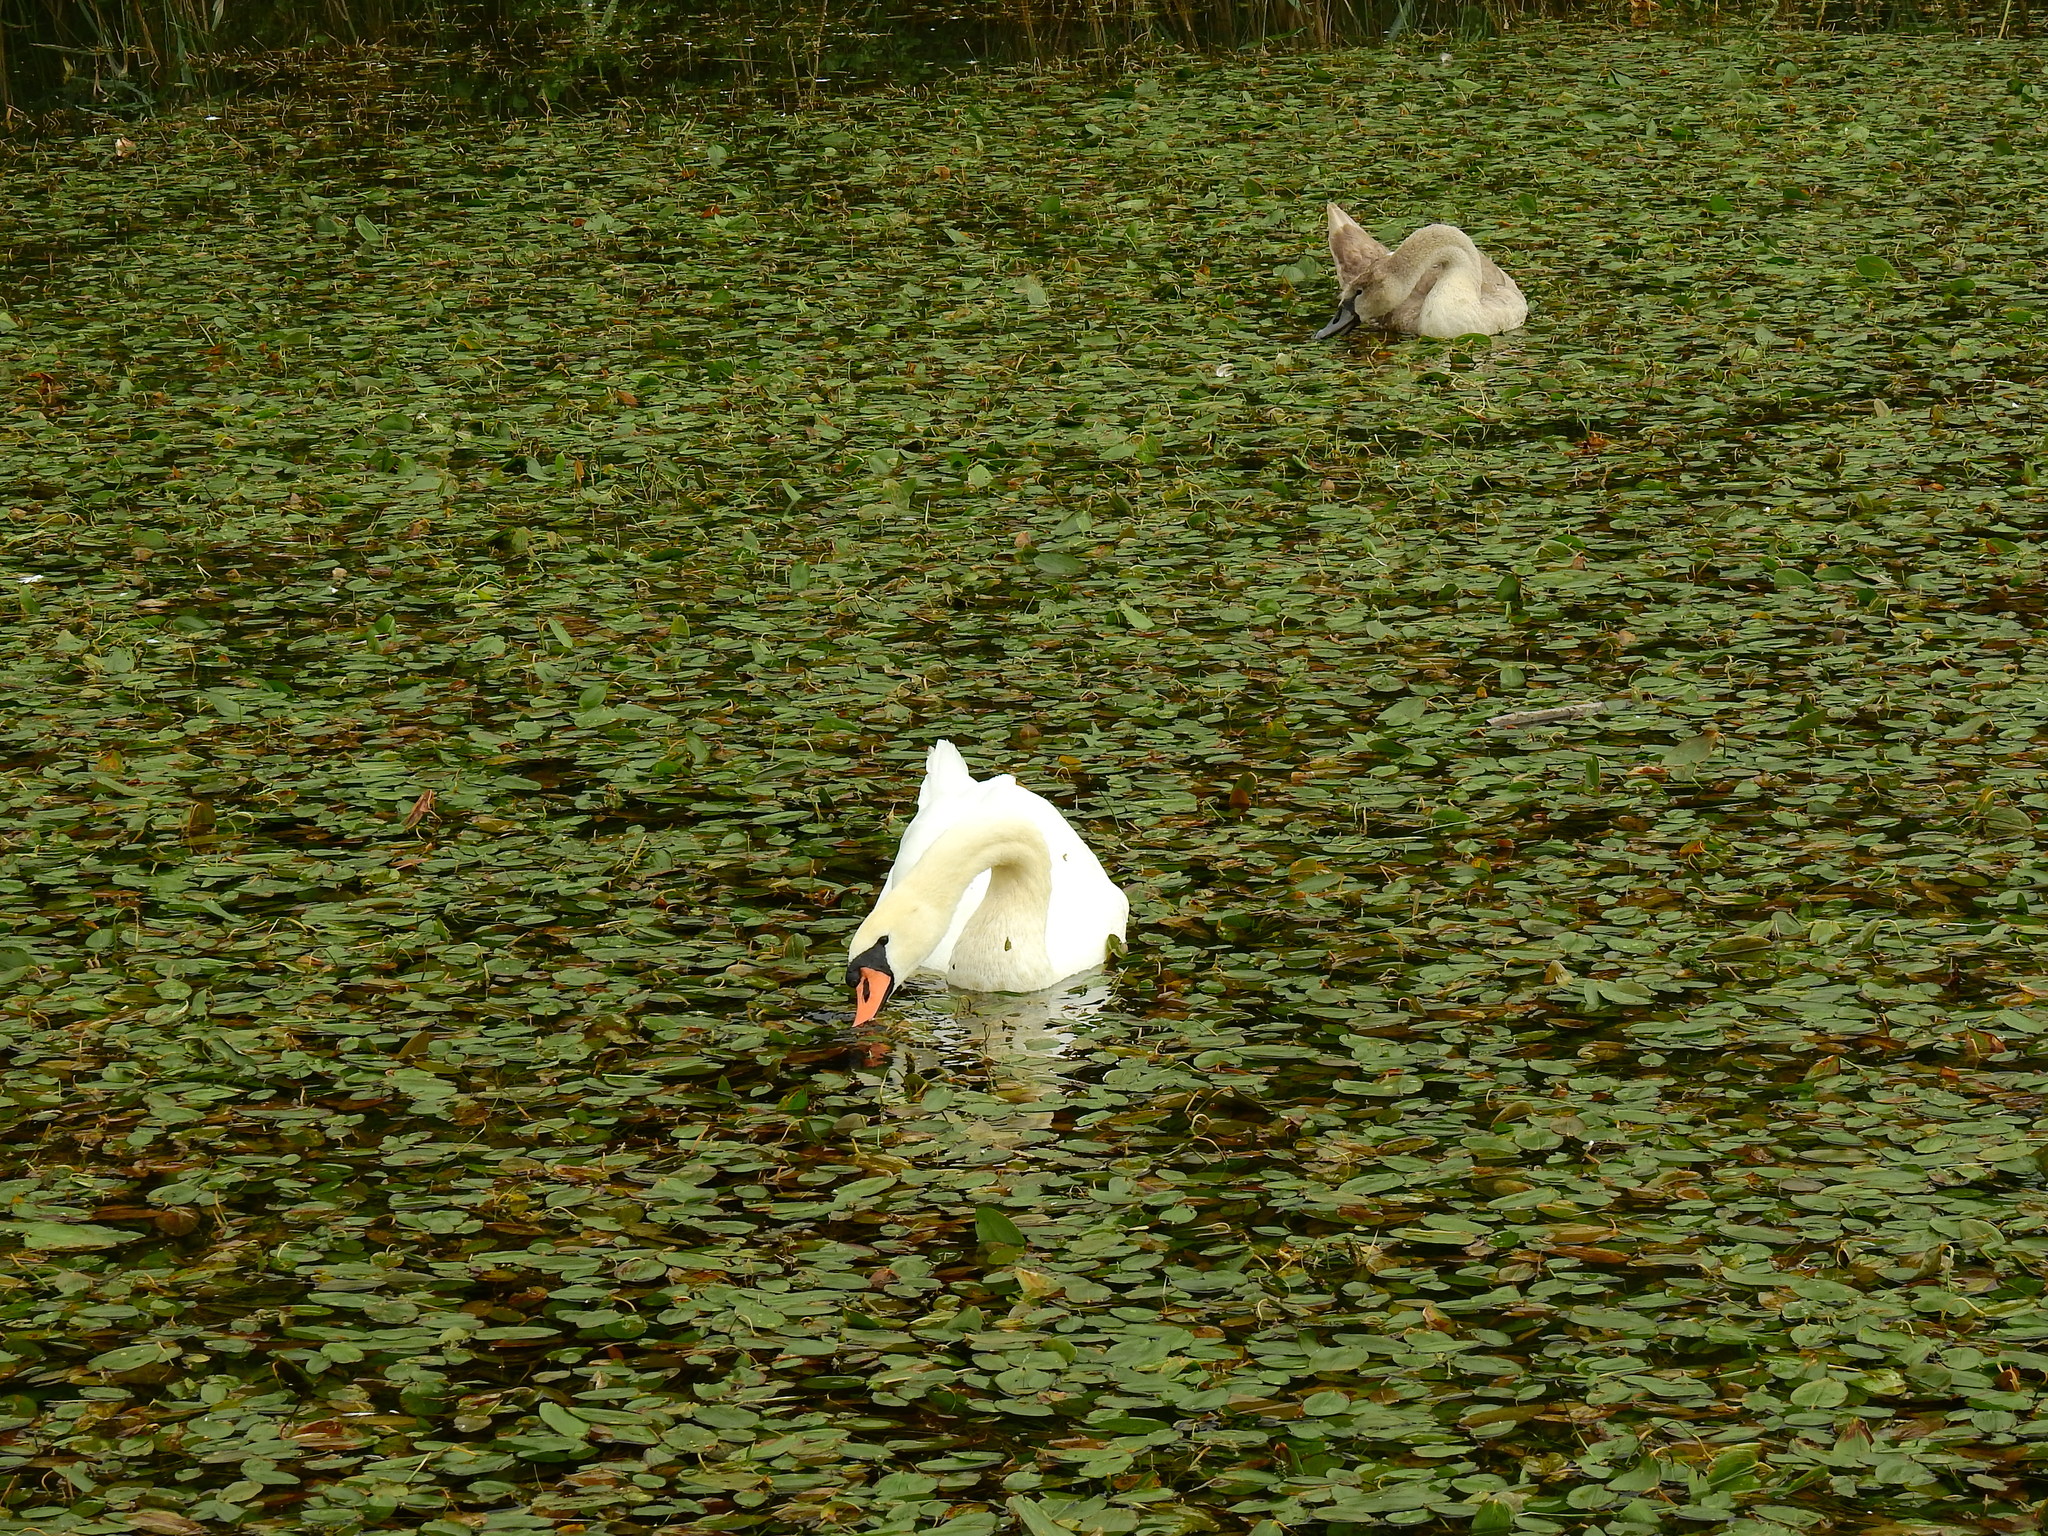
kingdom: Animalia
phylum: Chordata
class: Aves
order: Anseriformes
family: Anatidae
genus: Cygnus
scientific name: Cygnus olor
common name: Mute swan
